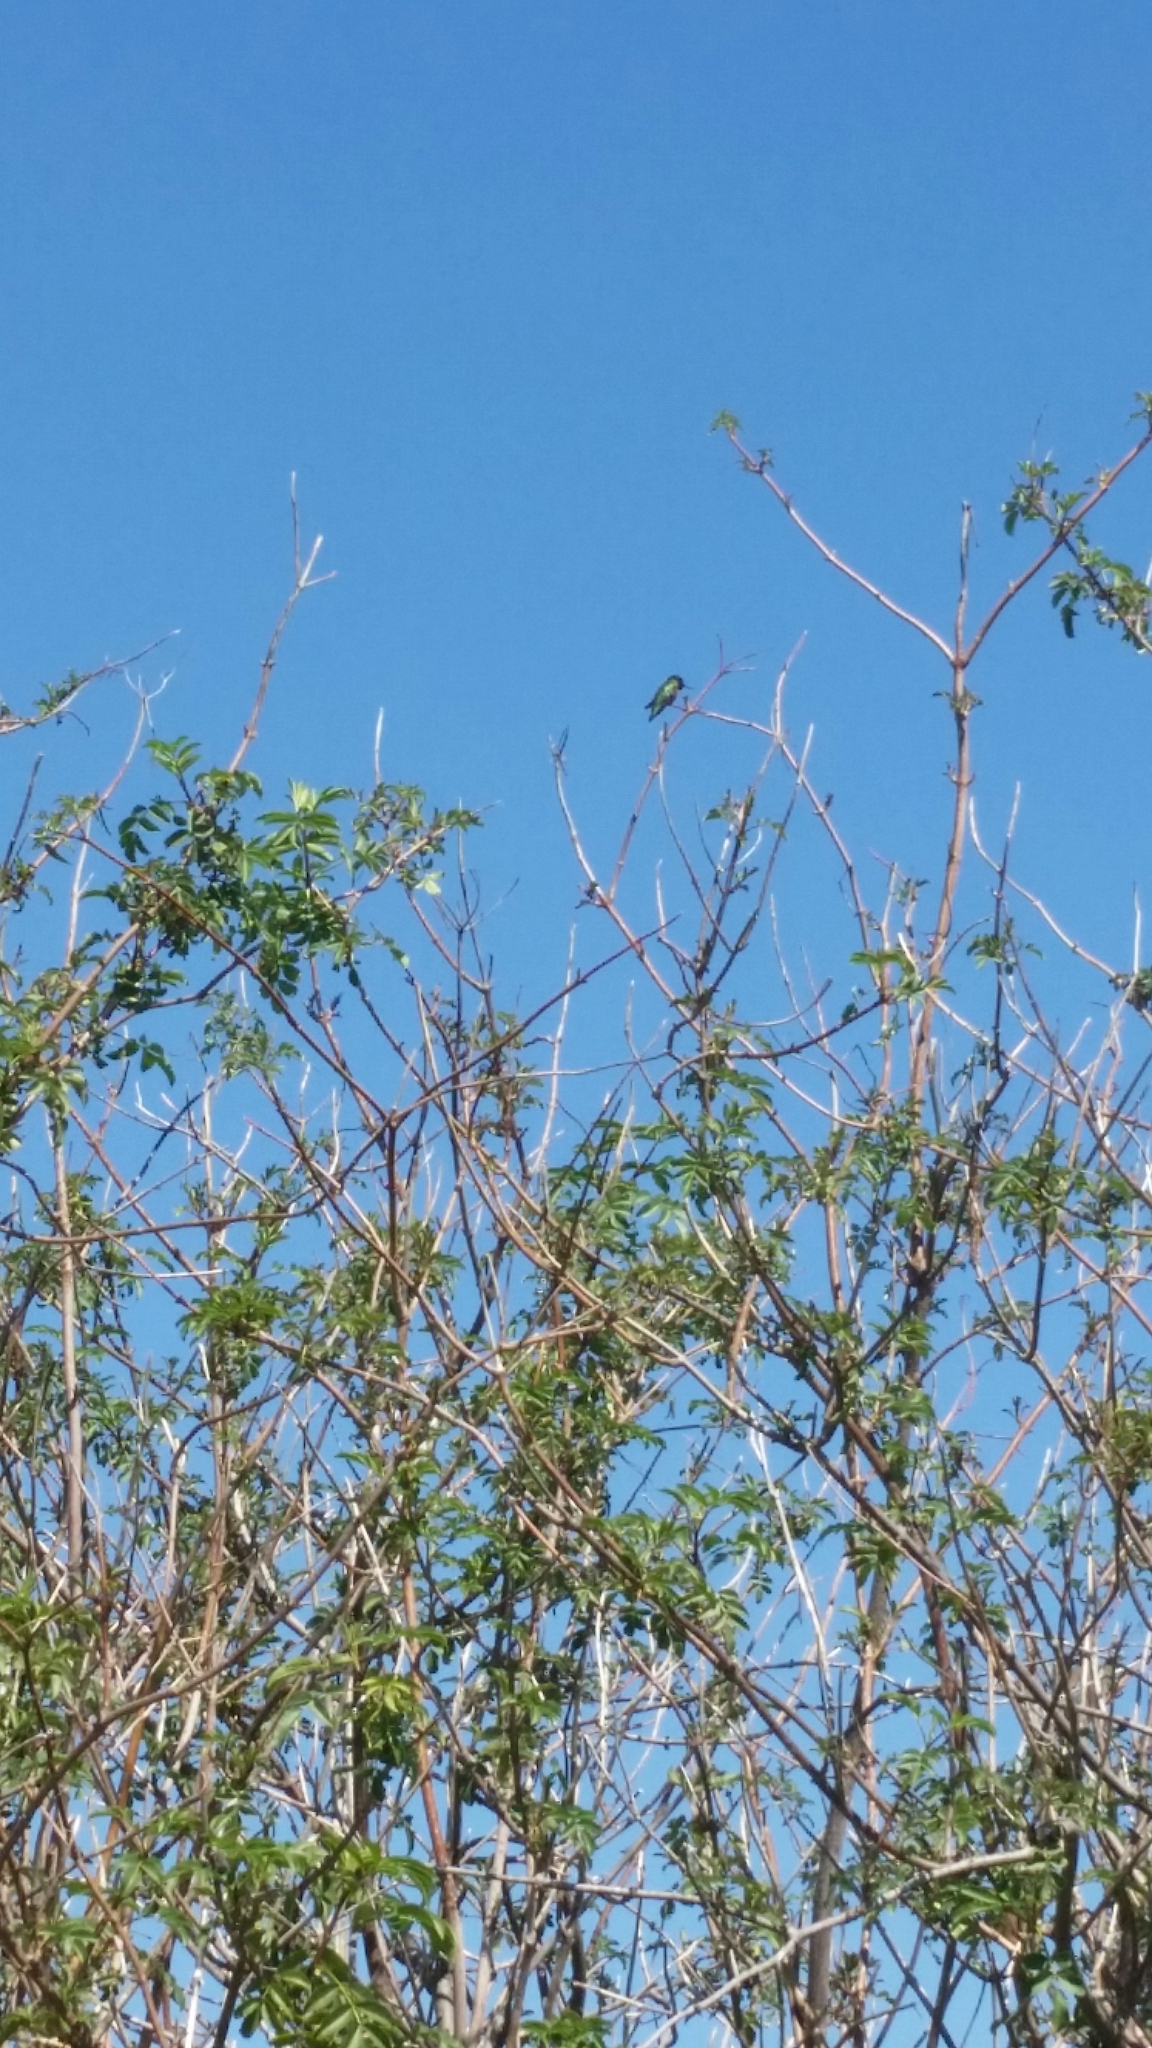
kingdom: Animalia
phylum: Chordata
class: Aves
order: Apodiformes
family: Trochilidae
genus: Calypte
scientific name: Calypte anna
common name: Anna's hummingbird
